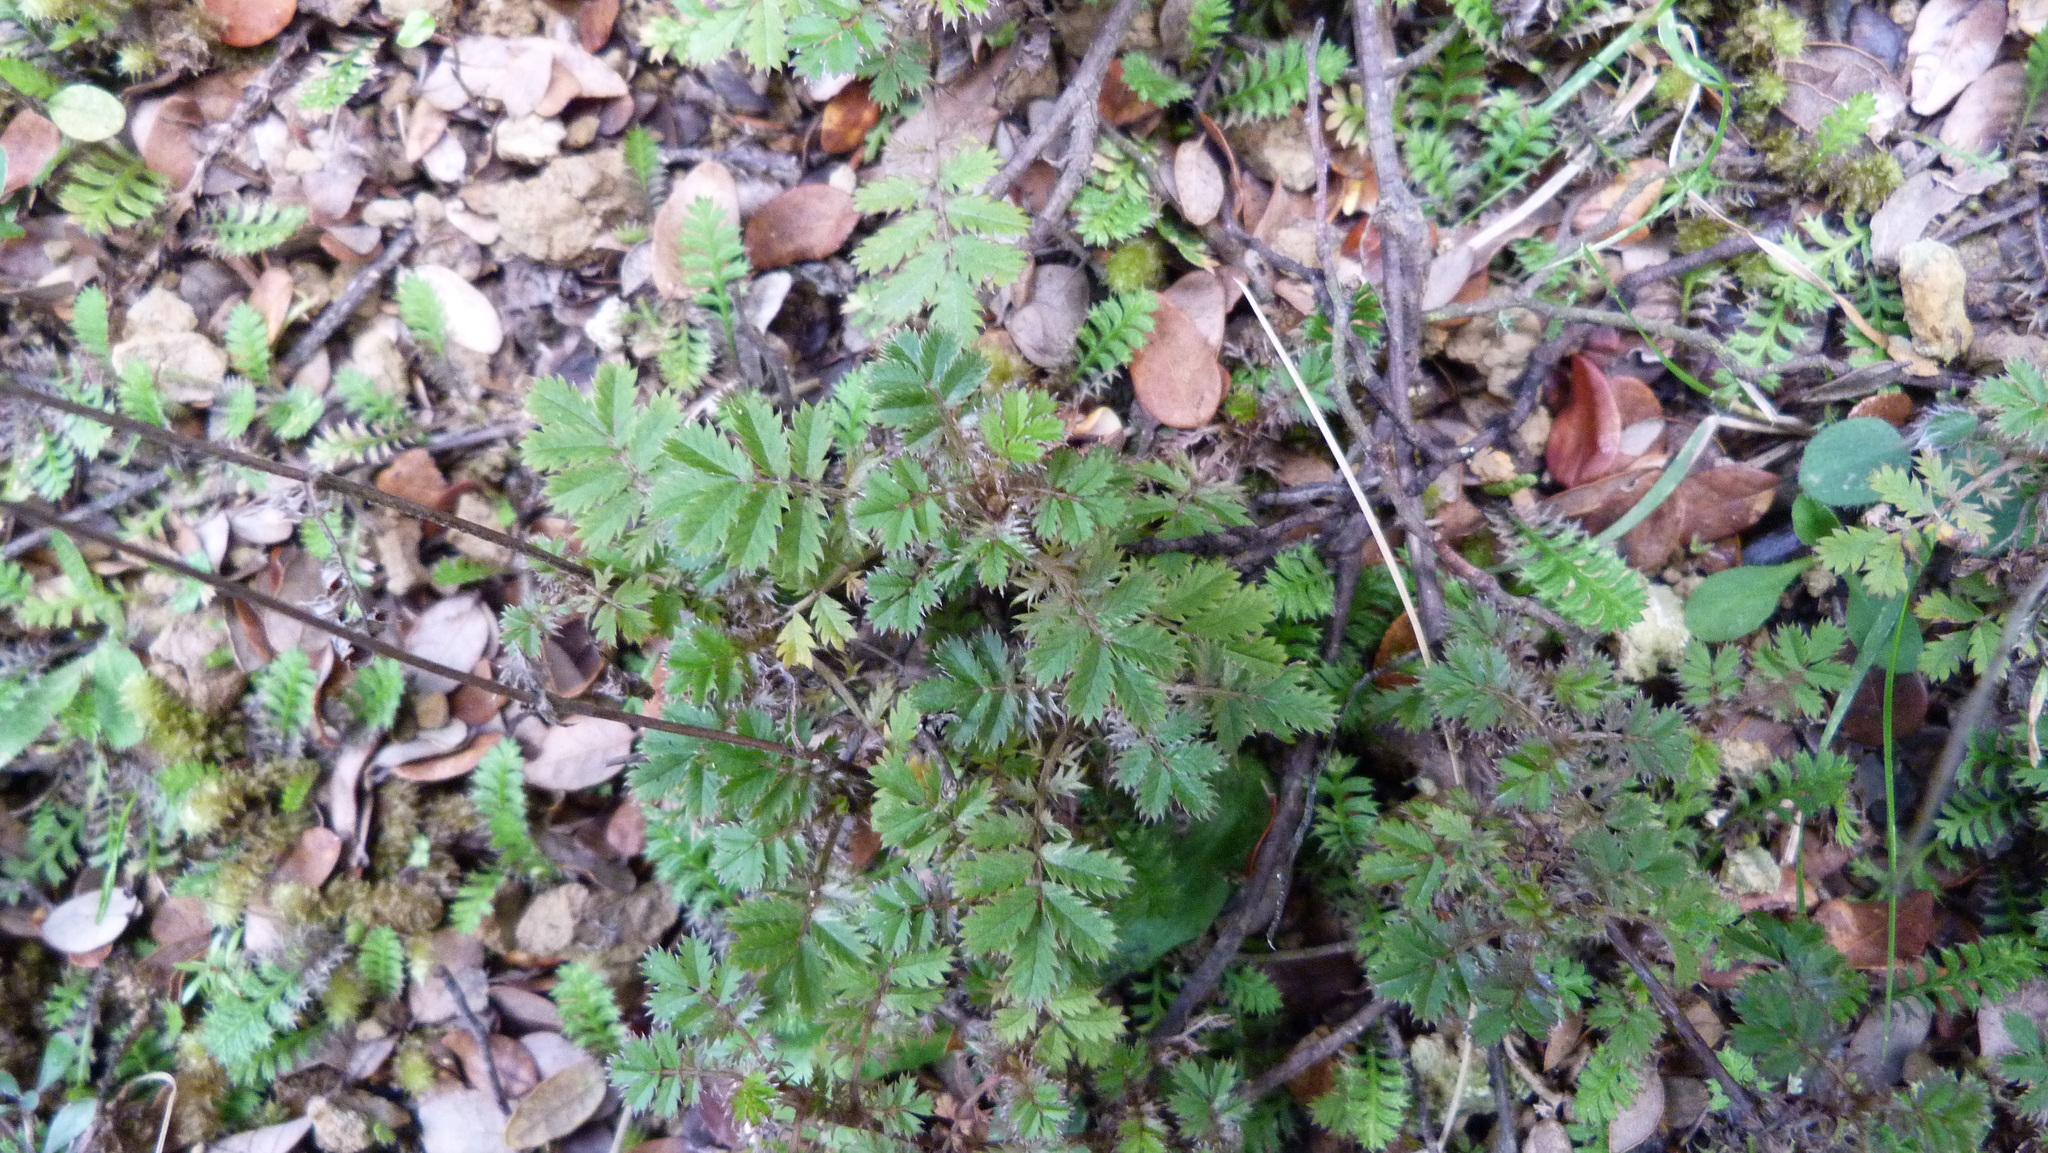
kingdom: Plantae
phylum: Tracheophyta
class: Magnoliopsida
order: Rosales
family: Rosaceae
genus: Acaena
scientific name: Acaena anserinifolia
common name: Bronze pirri-pirri-bur
